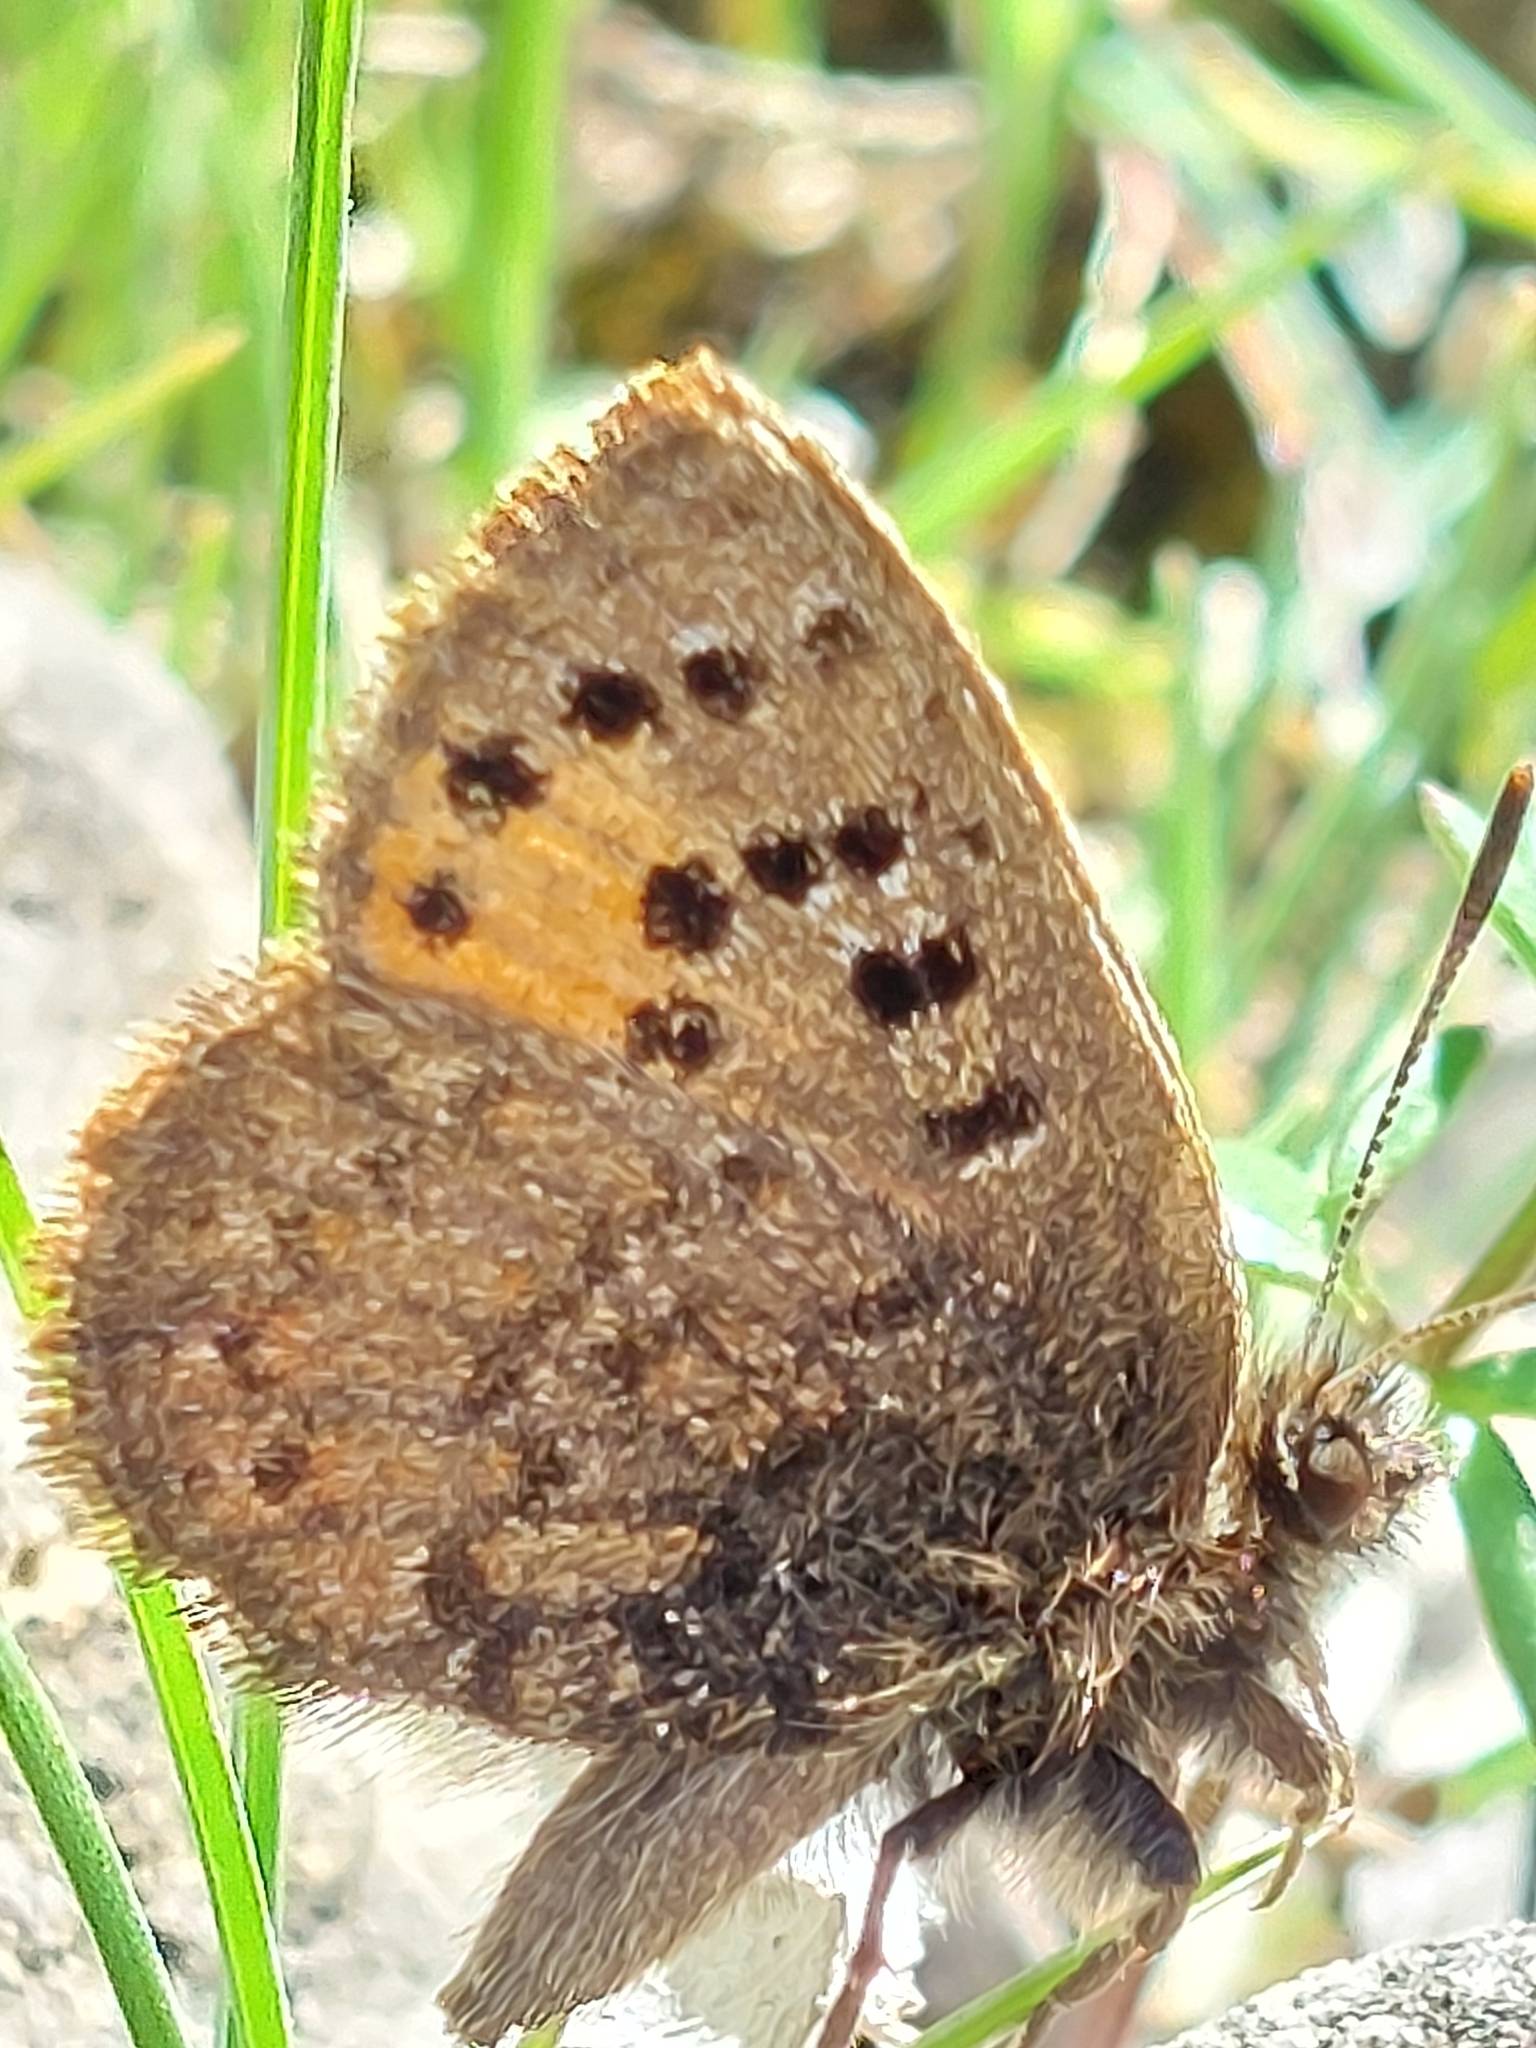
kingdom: Animalia
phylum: Arthropoda
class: Insecta
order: Lepidoptera
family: Lycaenidae
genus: Tomares
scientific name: Tomares mauritanicus
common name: Moroccan hairstreak
